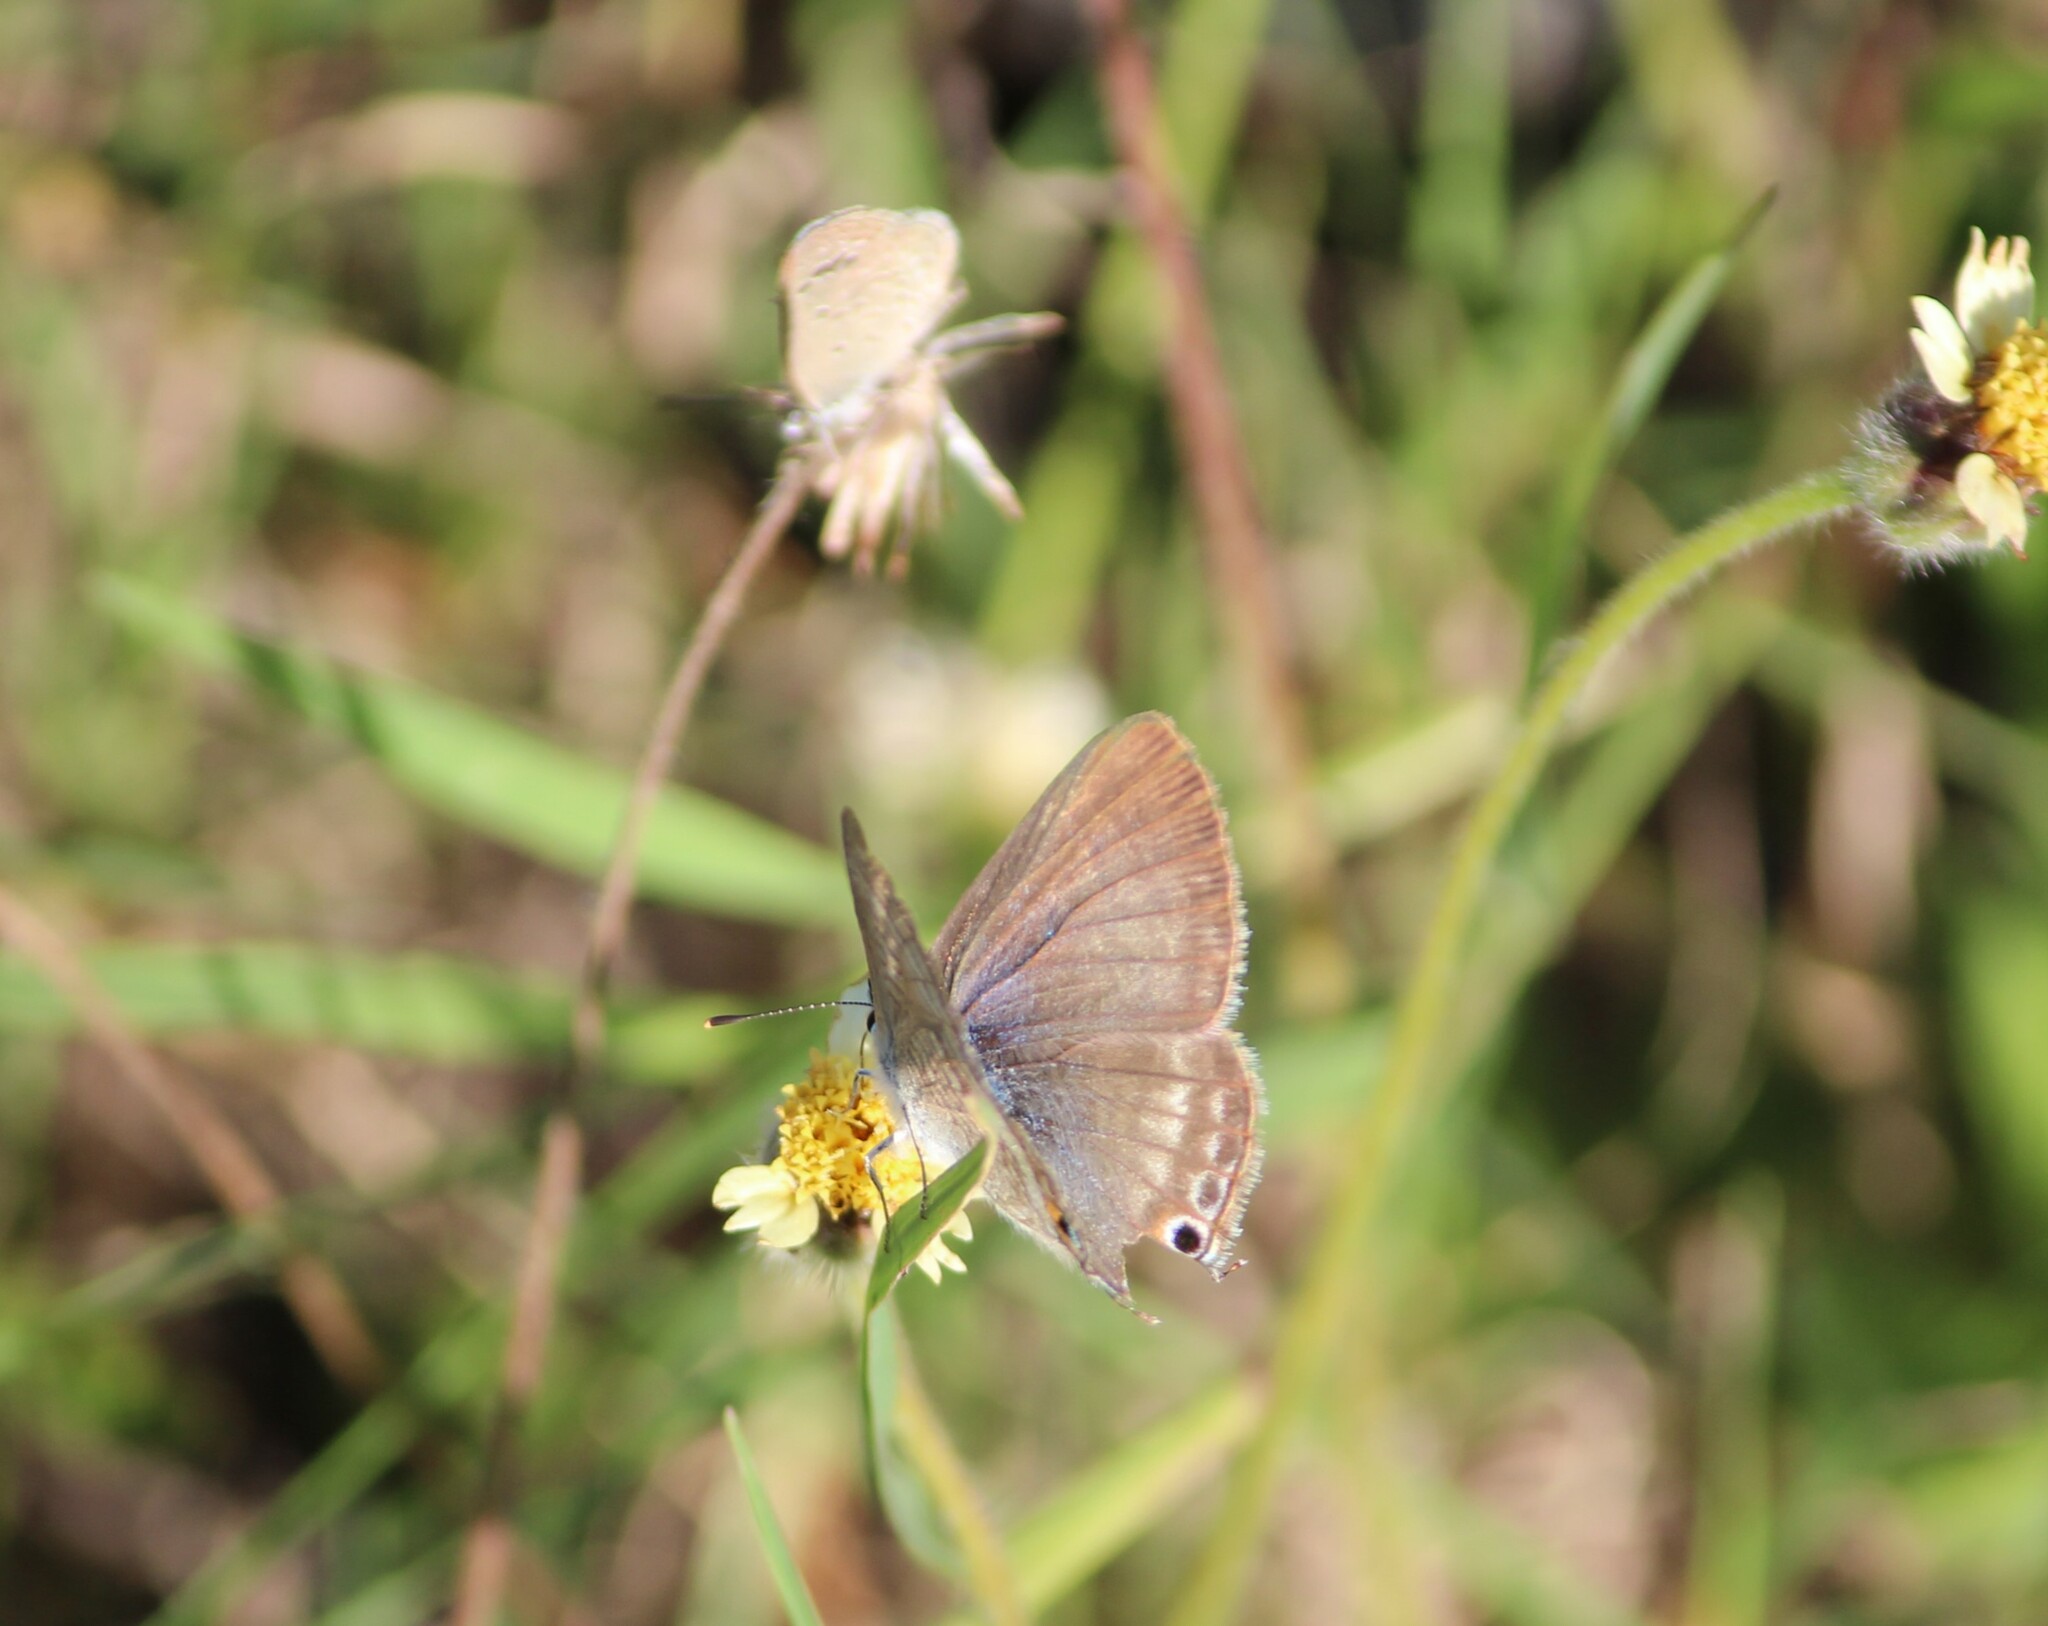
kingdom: Animalia
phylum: Arthropoda
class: Insecta
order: Lepidoptera
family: Lycaenidae
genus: Lampides
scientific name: Lampides boeticus
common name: Long-tailed blue
